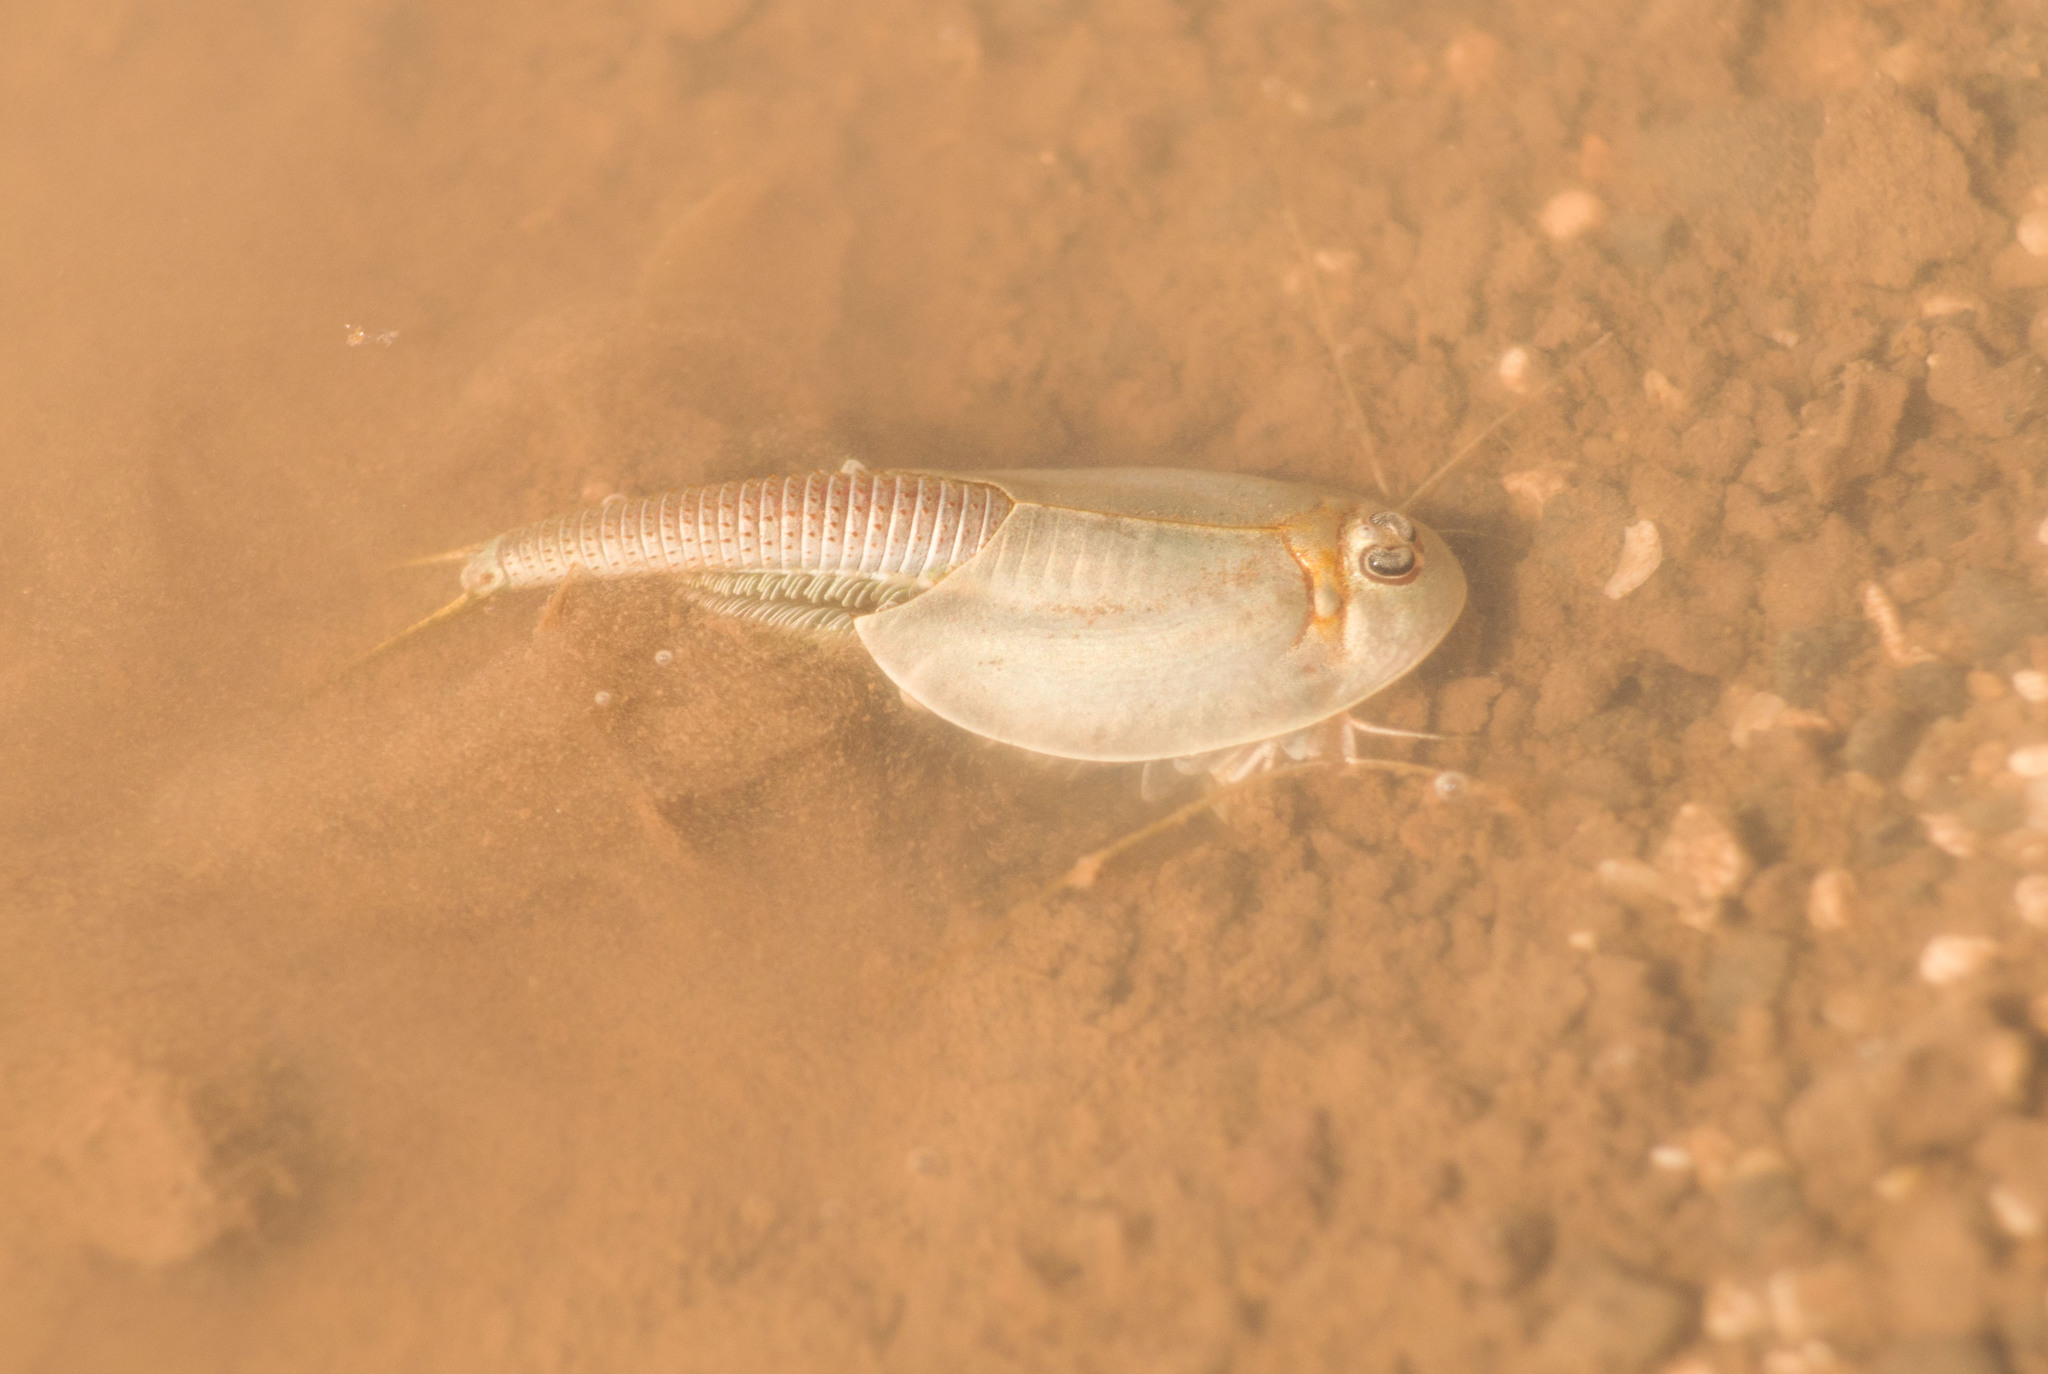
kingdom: Animalia
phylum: Arthropoda
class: Branchiopoda
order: Notostraca
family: Triopsidae
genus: Triops
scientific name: Triops longicaudatus
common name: Summer tadpole shrimp
